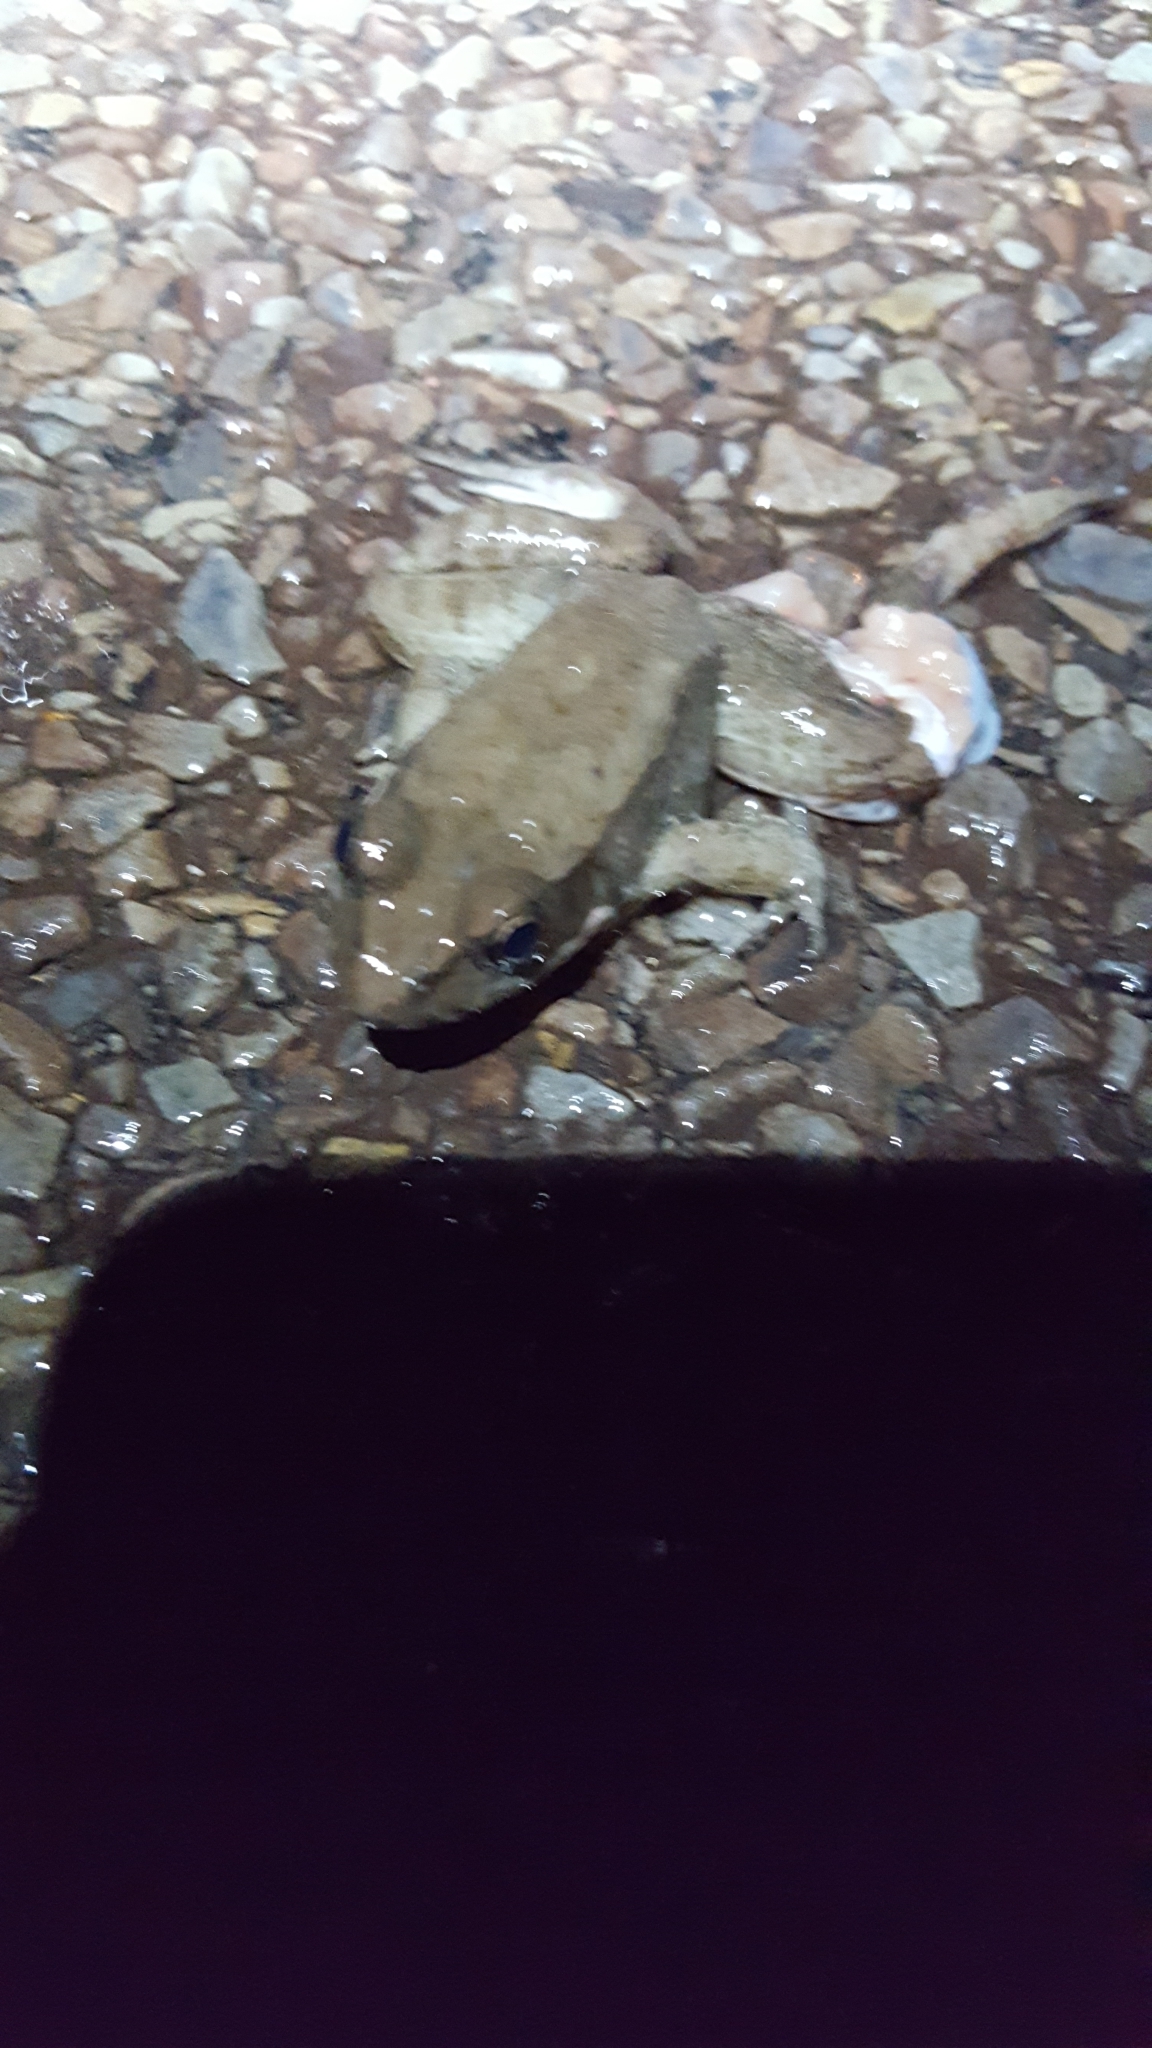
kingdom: Animalia
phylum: Chordata
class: Amphibia
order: Anura
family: Ranidae
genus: Lithobates
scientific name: Lithobates clamitans
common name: Green frog
